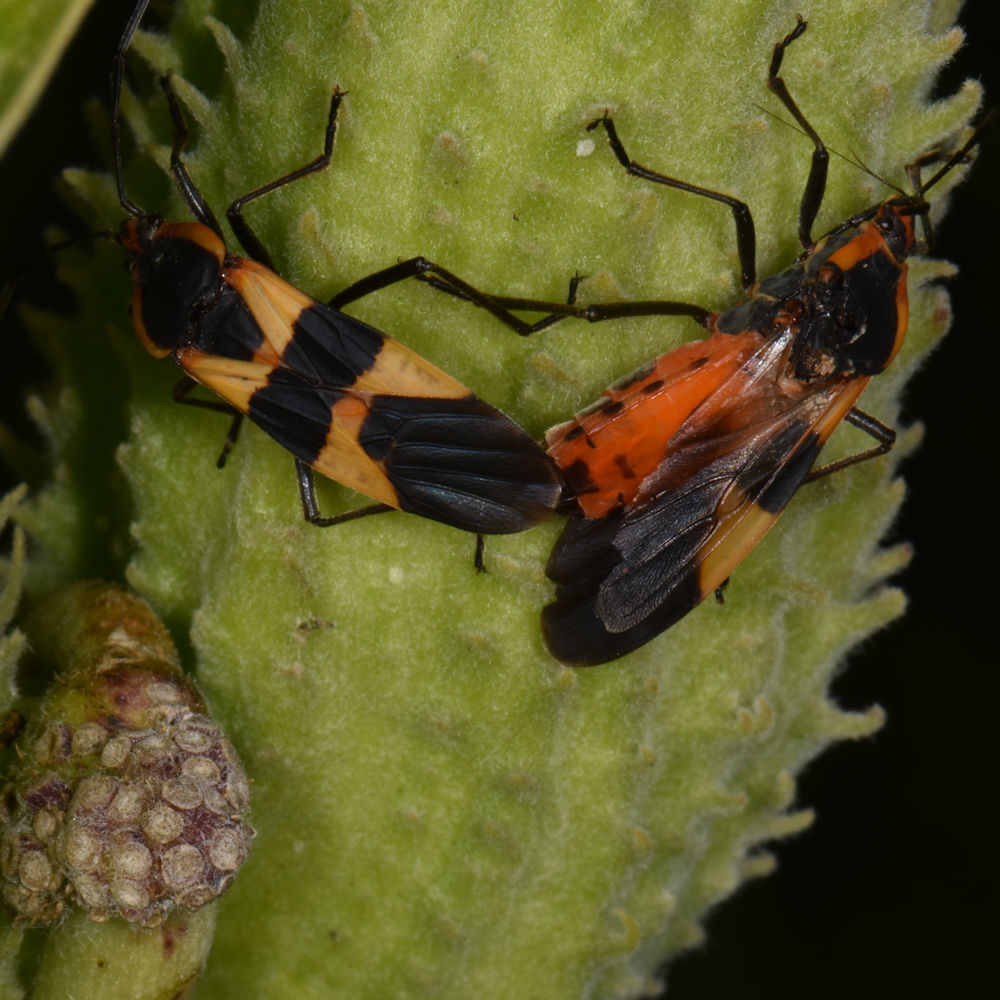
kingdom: Animalia
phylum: Arthropoda
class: Insecta
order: Hemiptera
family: Lygaeidae
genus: Oncopeltus
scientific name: Oncopeltus fasciatus
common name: Large milkweed bug
